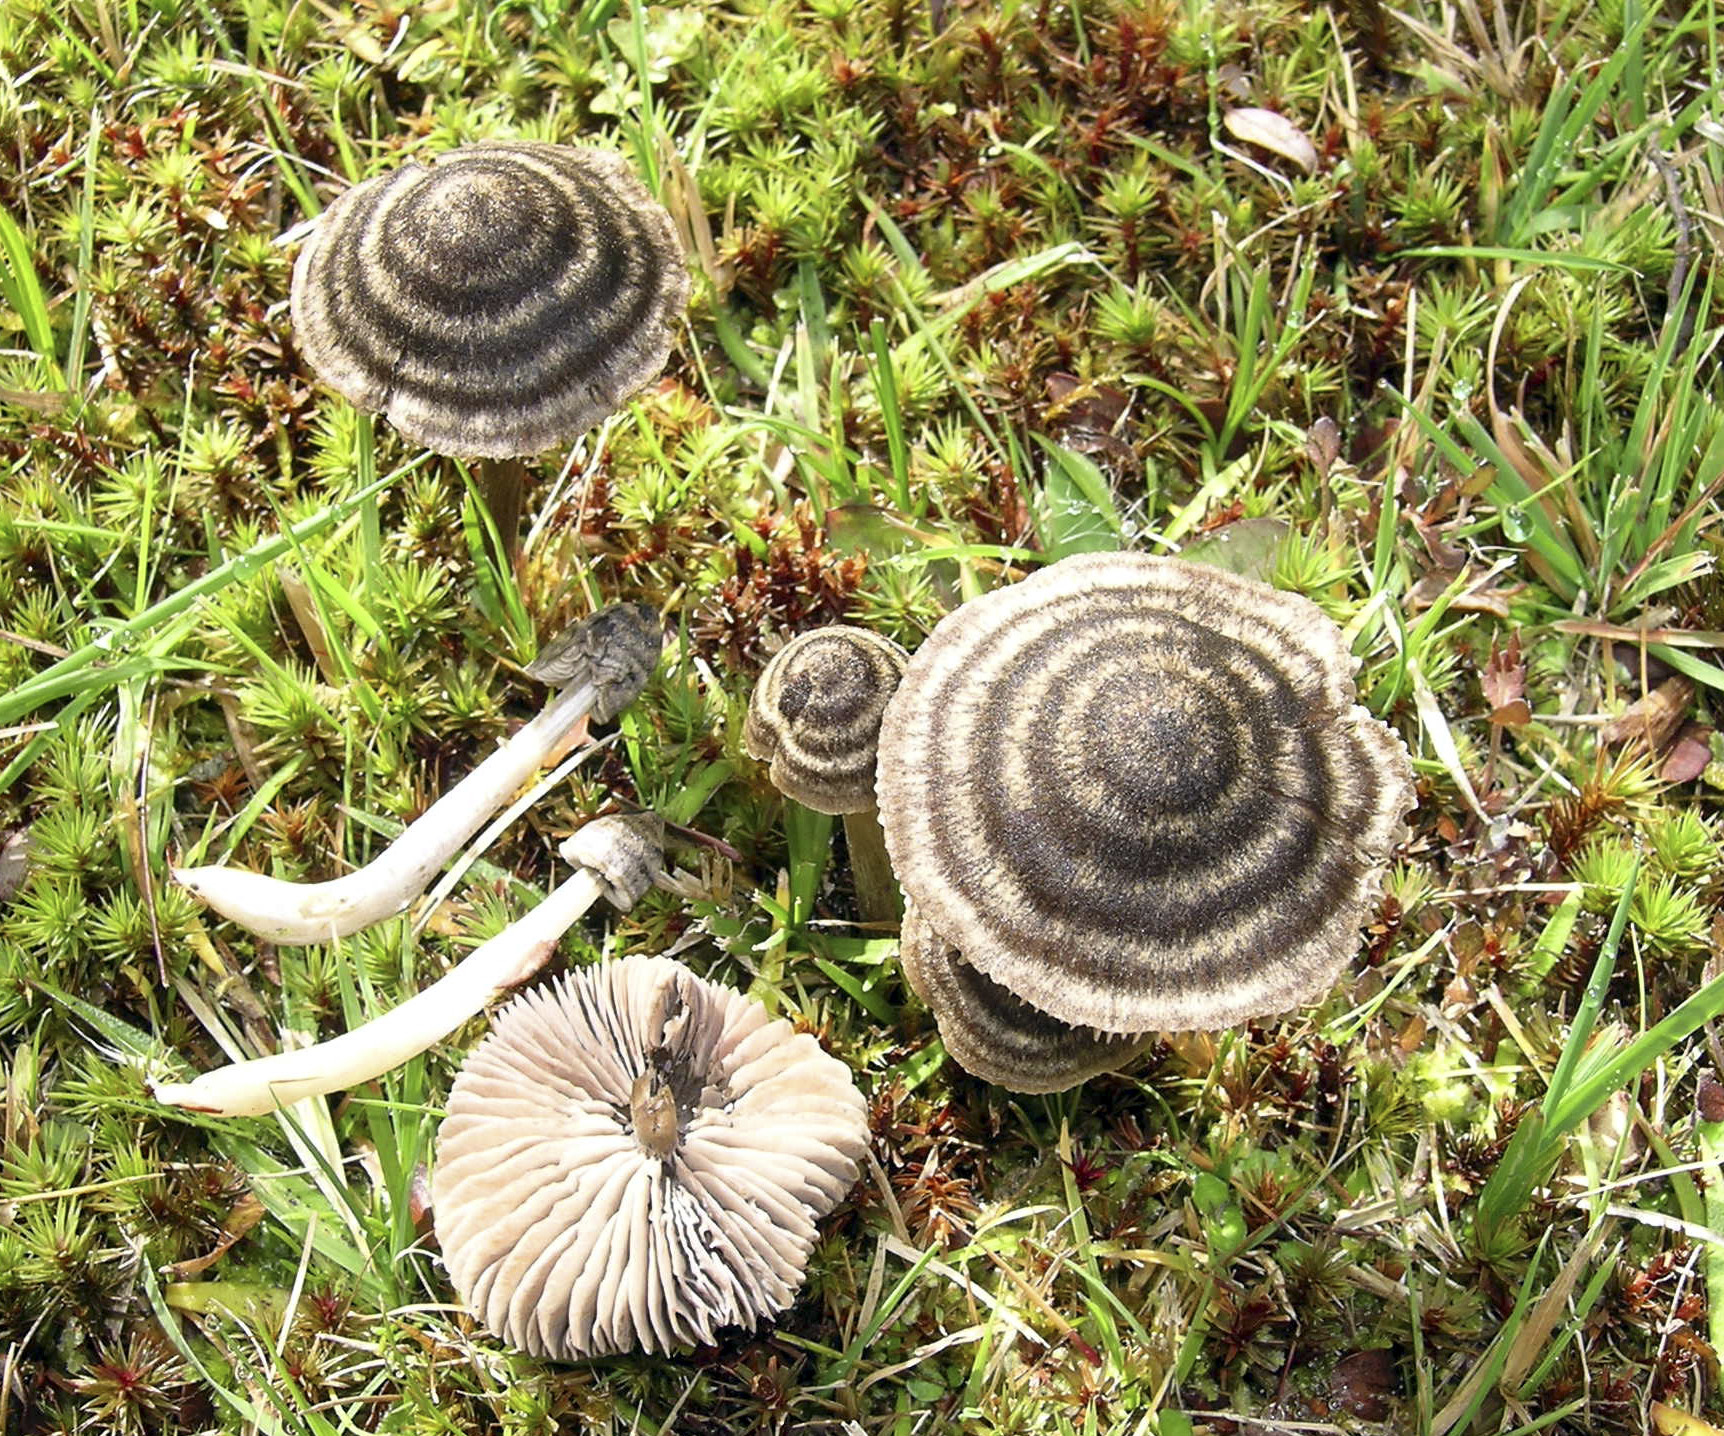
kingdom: Fungi
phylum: Basidiomycota
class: Agaricomycetes
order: Agaricales
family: Entolomataceae
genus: Entoloma
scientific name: Entoloma perzonatum
